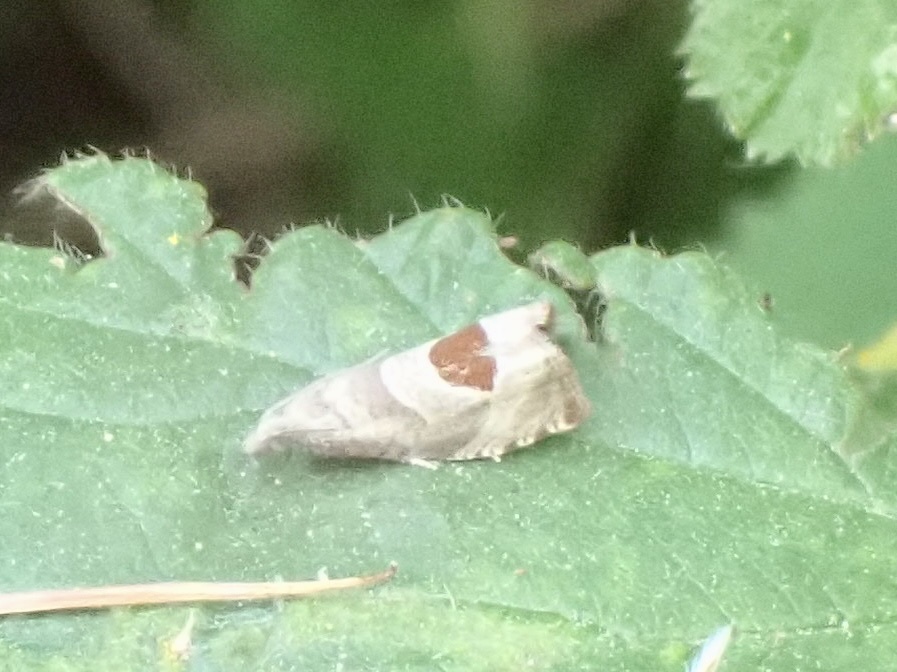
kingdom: Animalia
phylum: Arthropoda
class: Insecta
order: Lepidoptera
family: Tortricidae
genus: Notocelia
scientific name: Notocelia uddmanniana
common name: Bramble shoot moth
